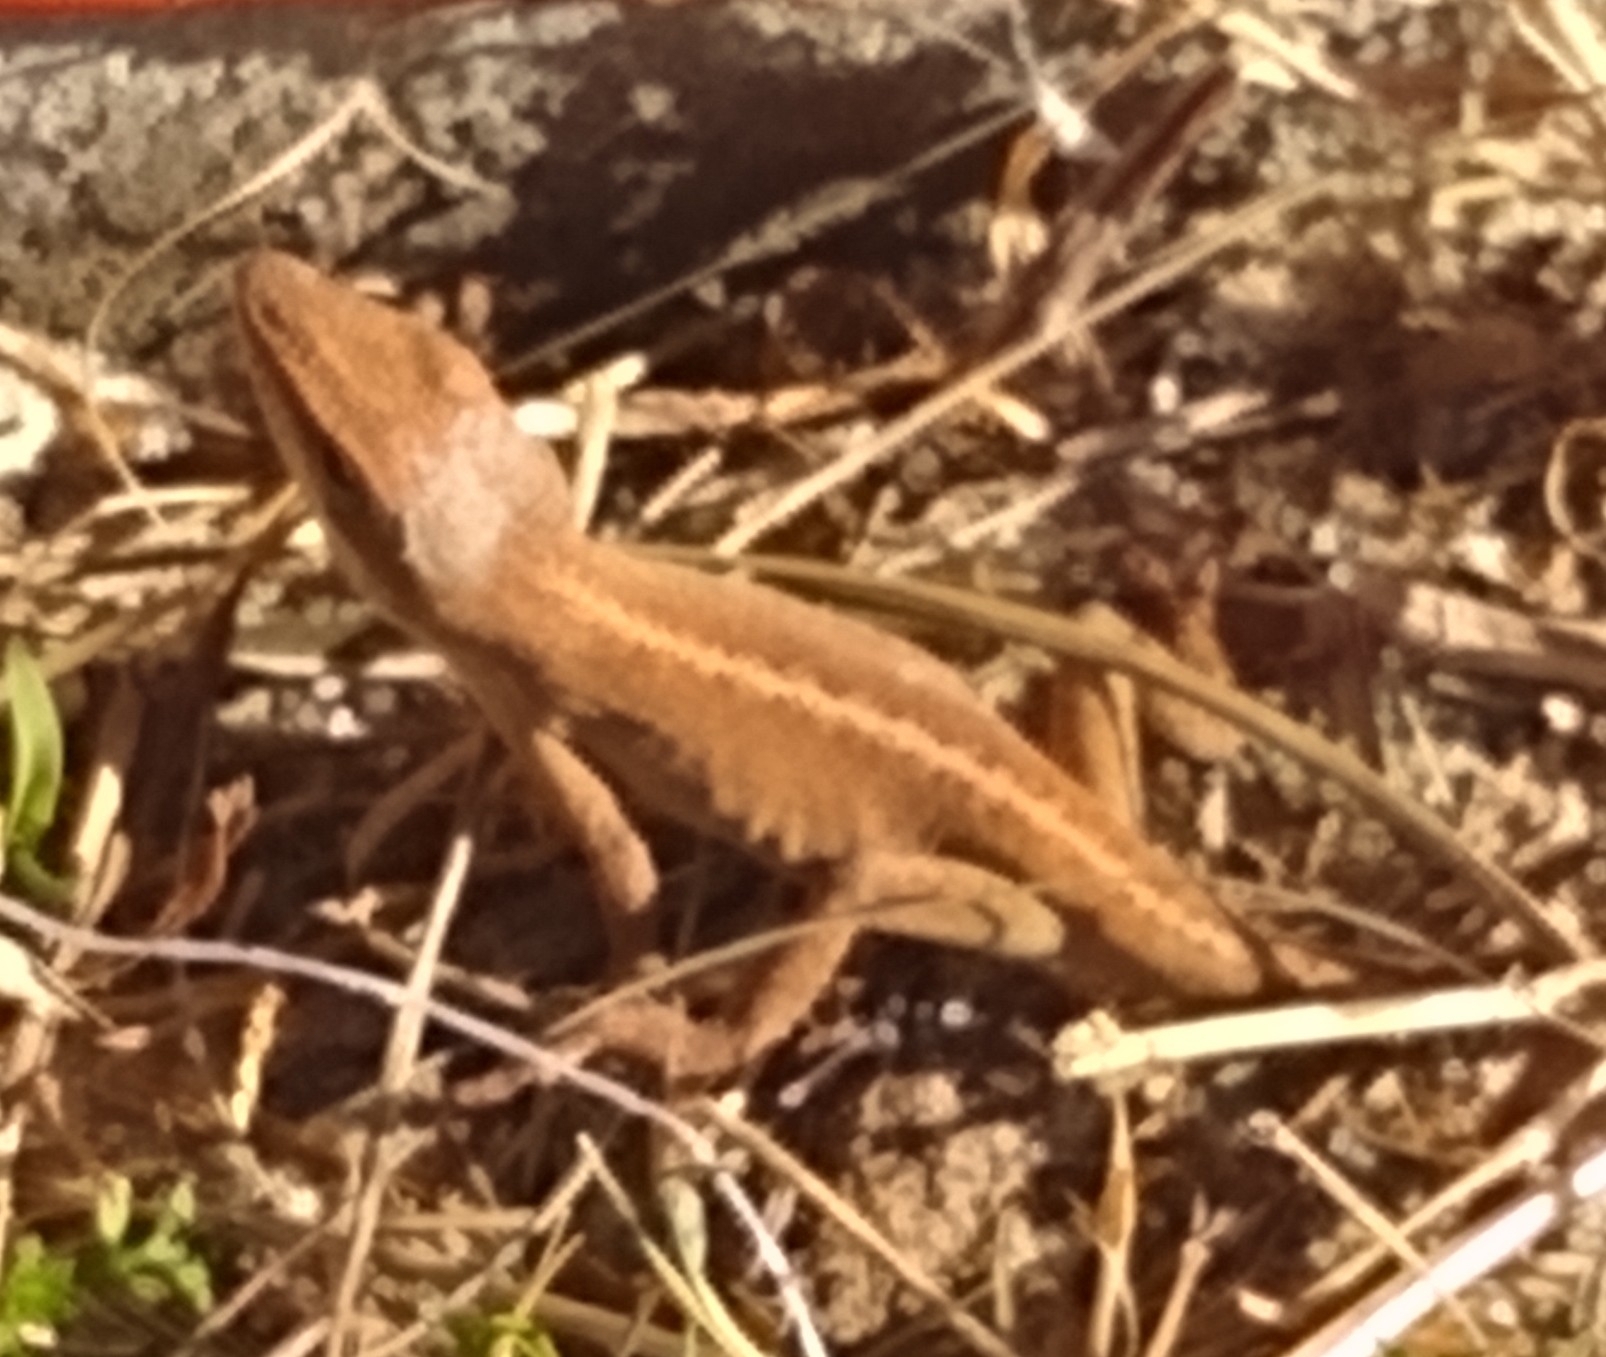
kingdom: Animalia
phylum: Chordata
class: Squamata
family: Dactyloidae
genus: Anolis
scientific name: Anolis carolinensis
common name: Green anole
